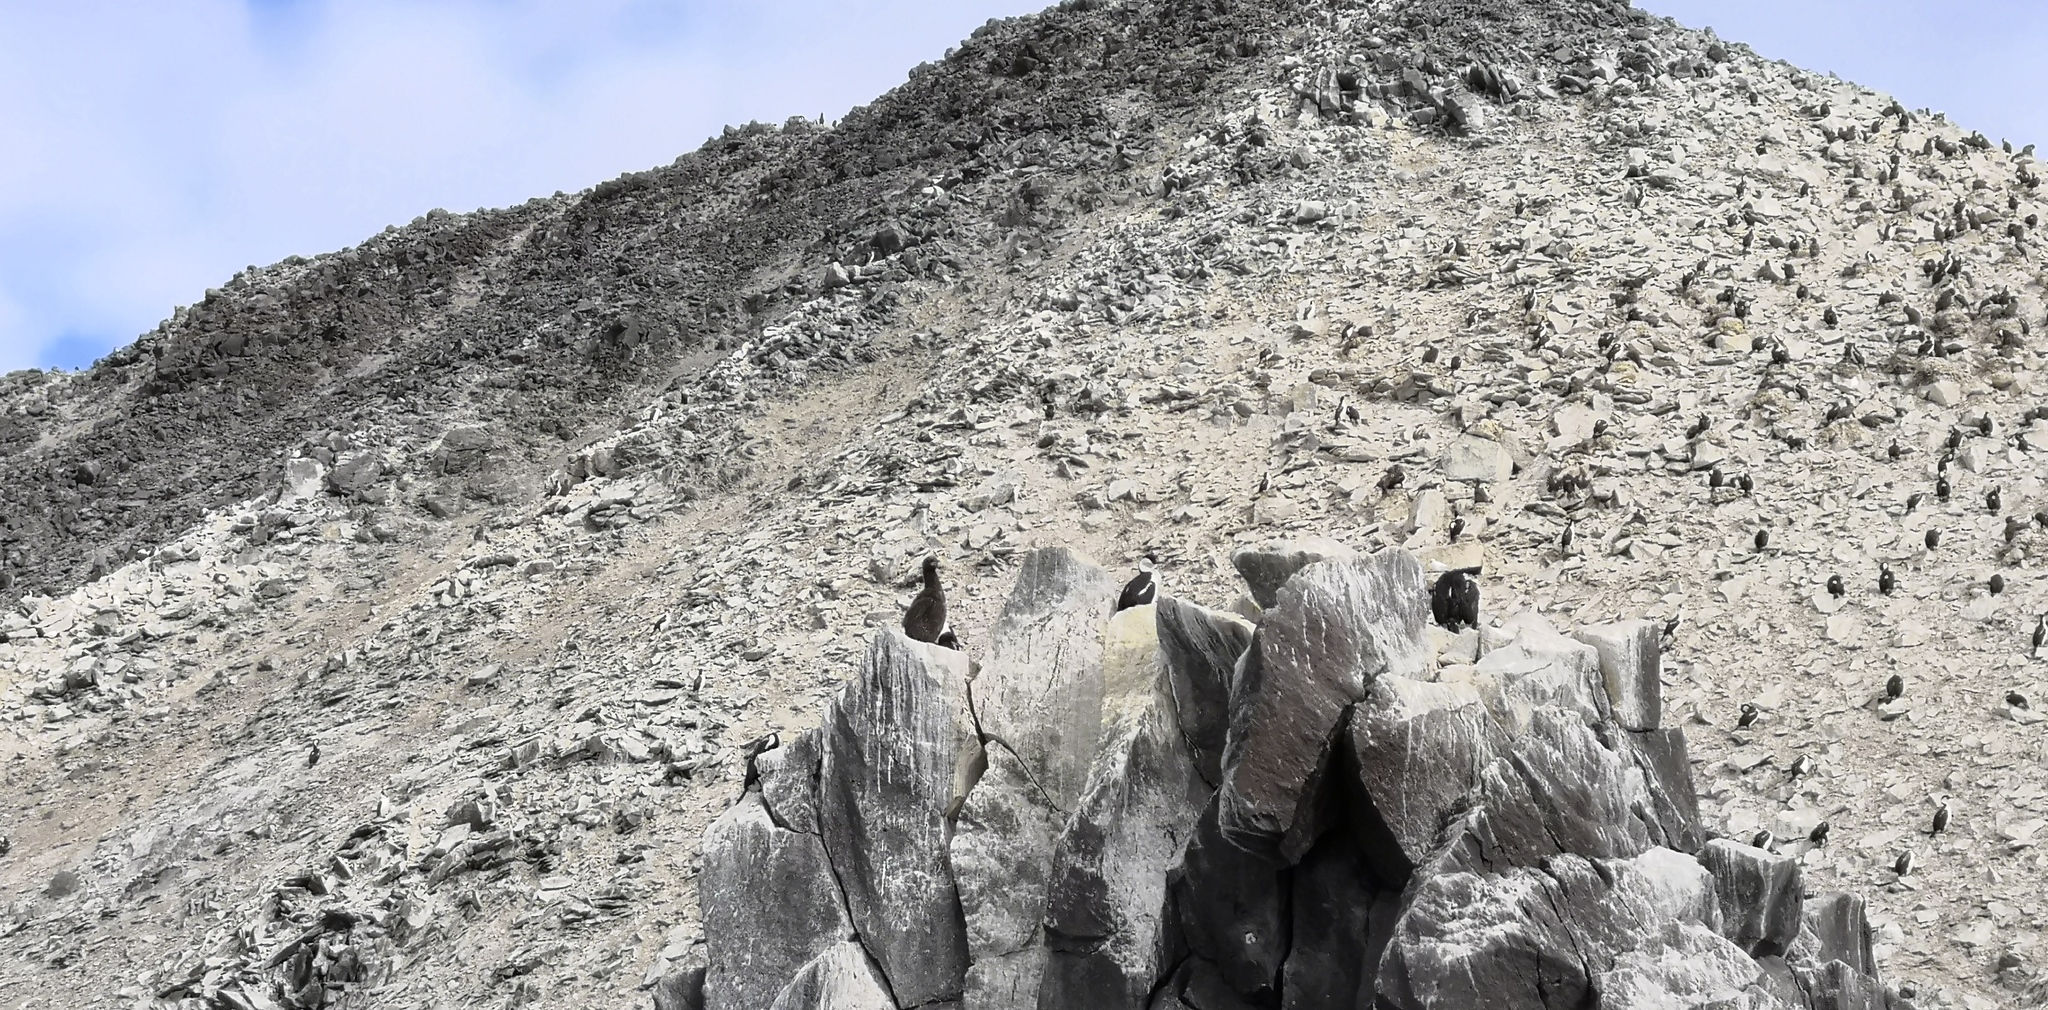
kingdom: Animalia
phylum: Chordata
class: Aves
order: Suliformes
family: Phalacrocoracidae
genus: Leucocarbo
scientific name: Leucocarbo atriceps
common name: Imperial shag
